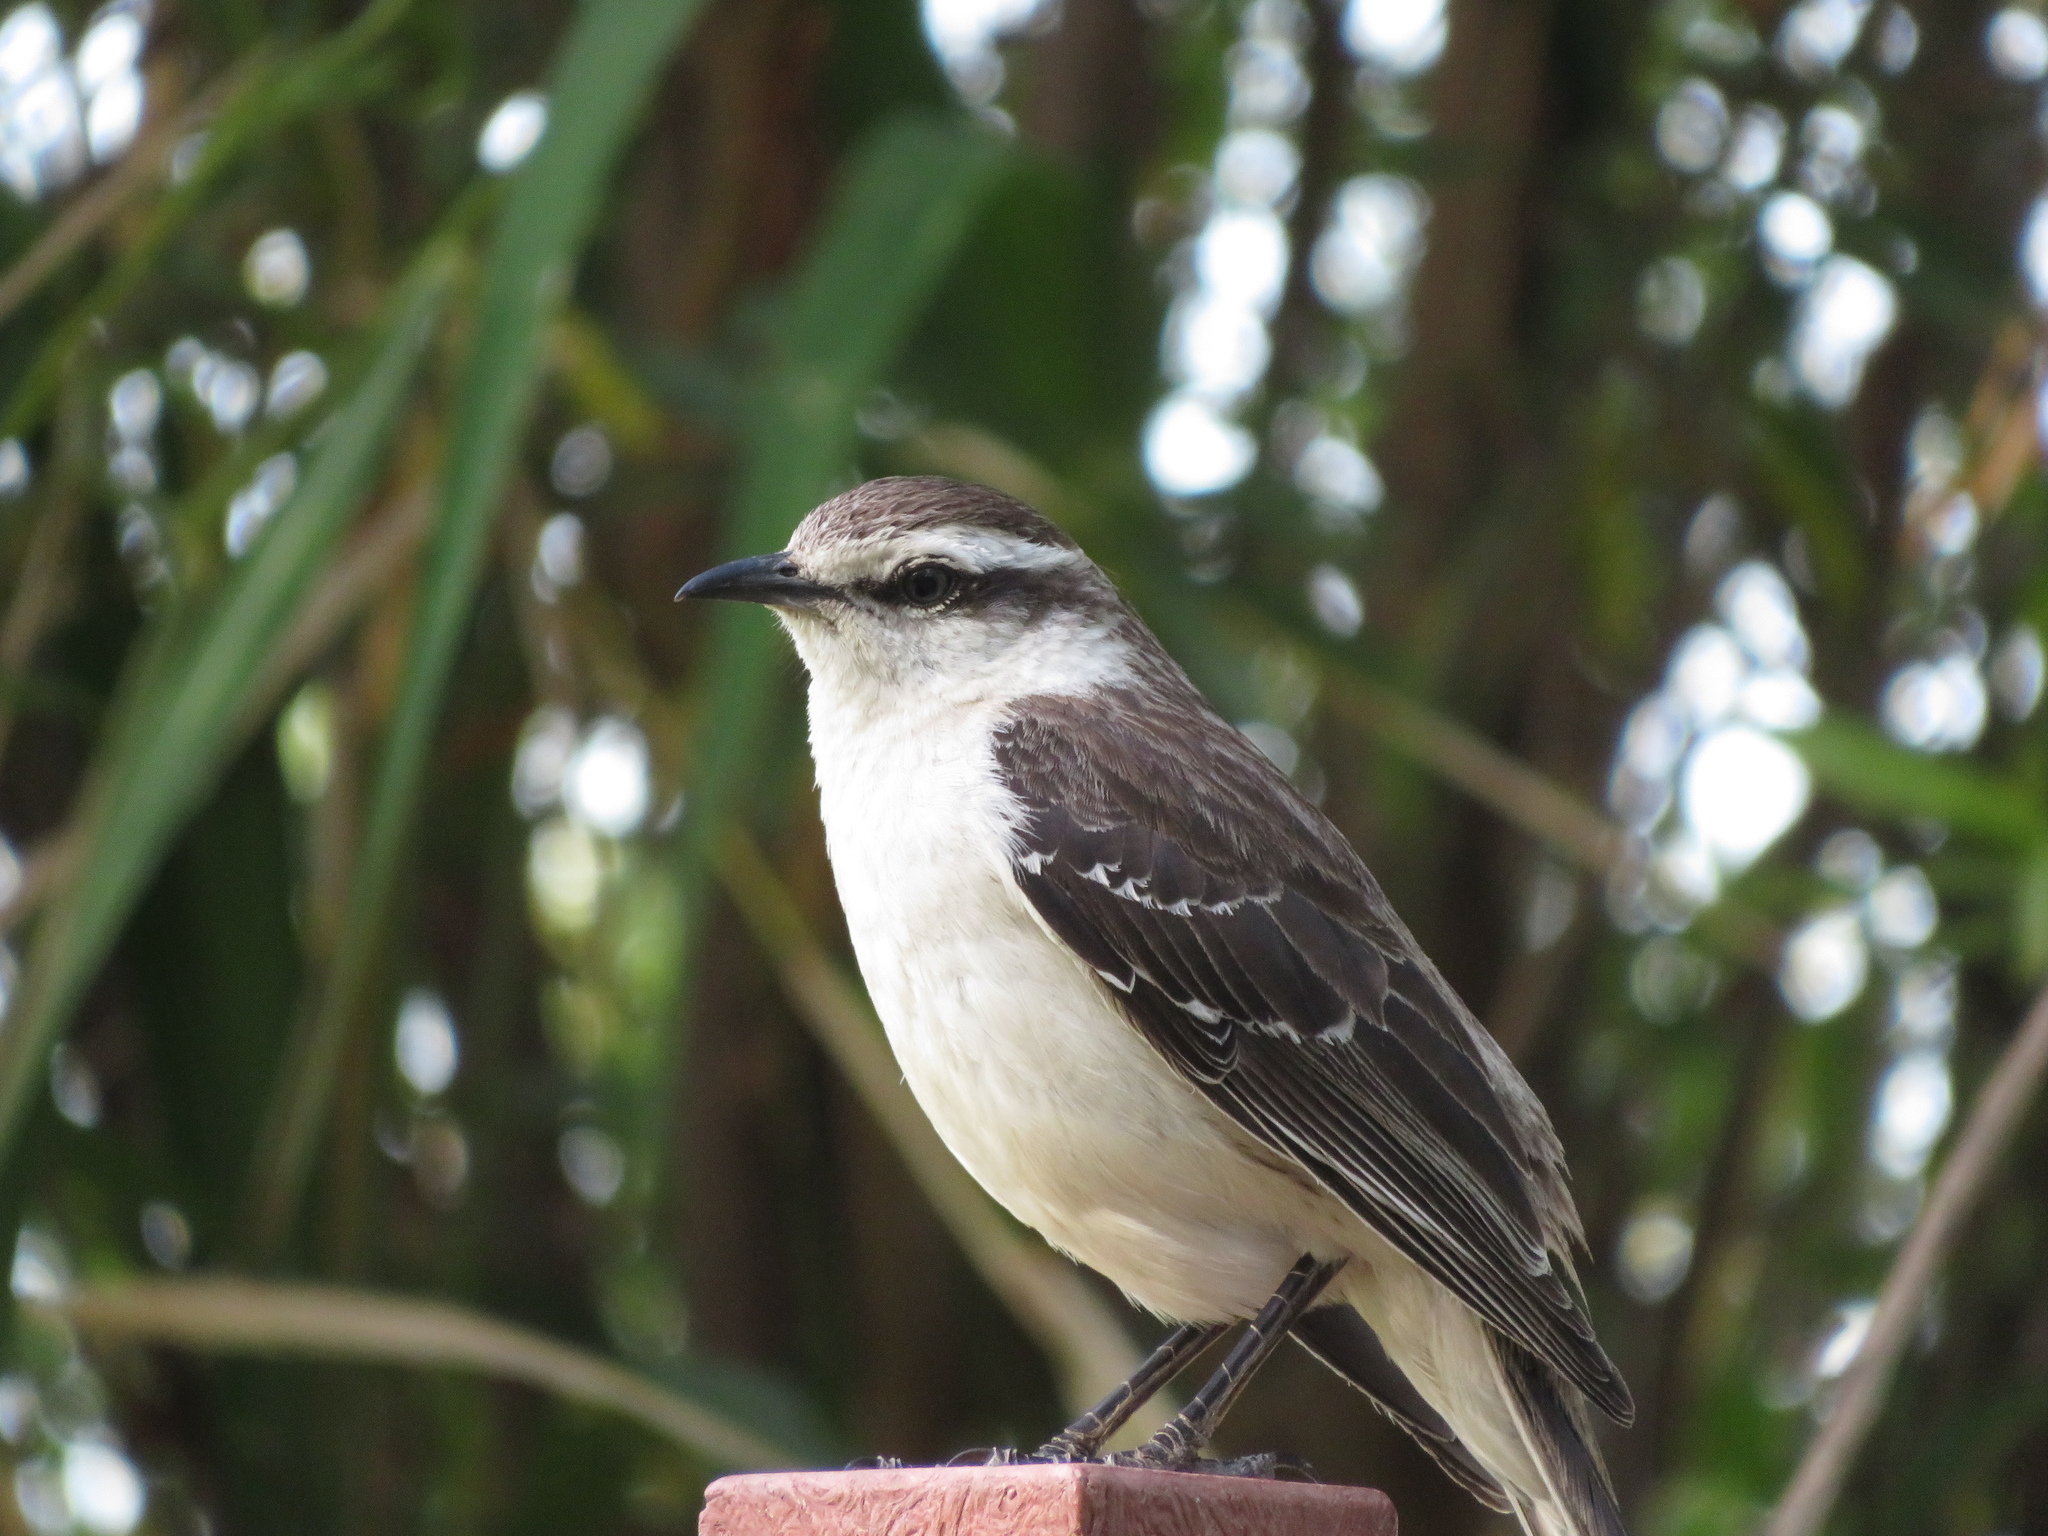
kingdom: Animalia
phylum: Chordata
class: Aves
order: Passeriformes
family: Mimidae
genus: Mimus
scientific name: Mimus saturninus
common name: Chalk-browed mockingbird
